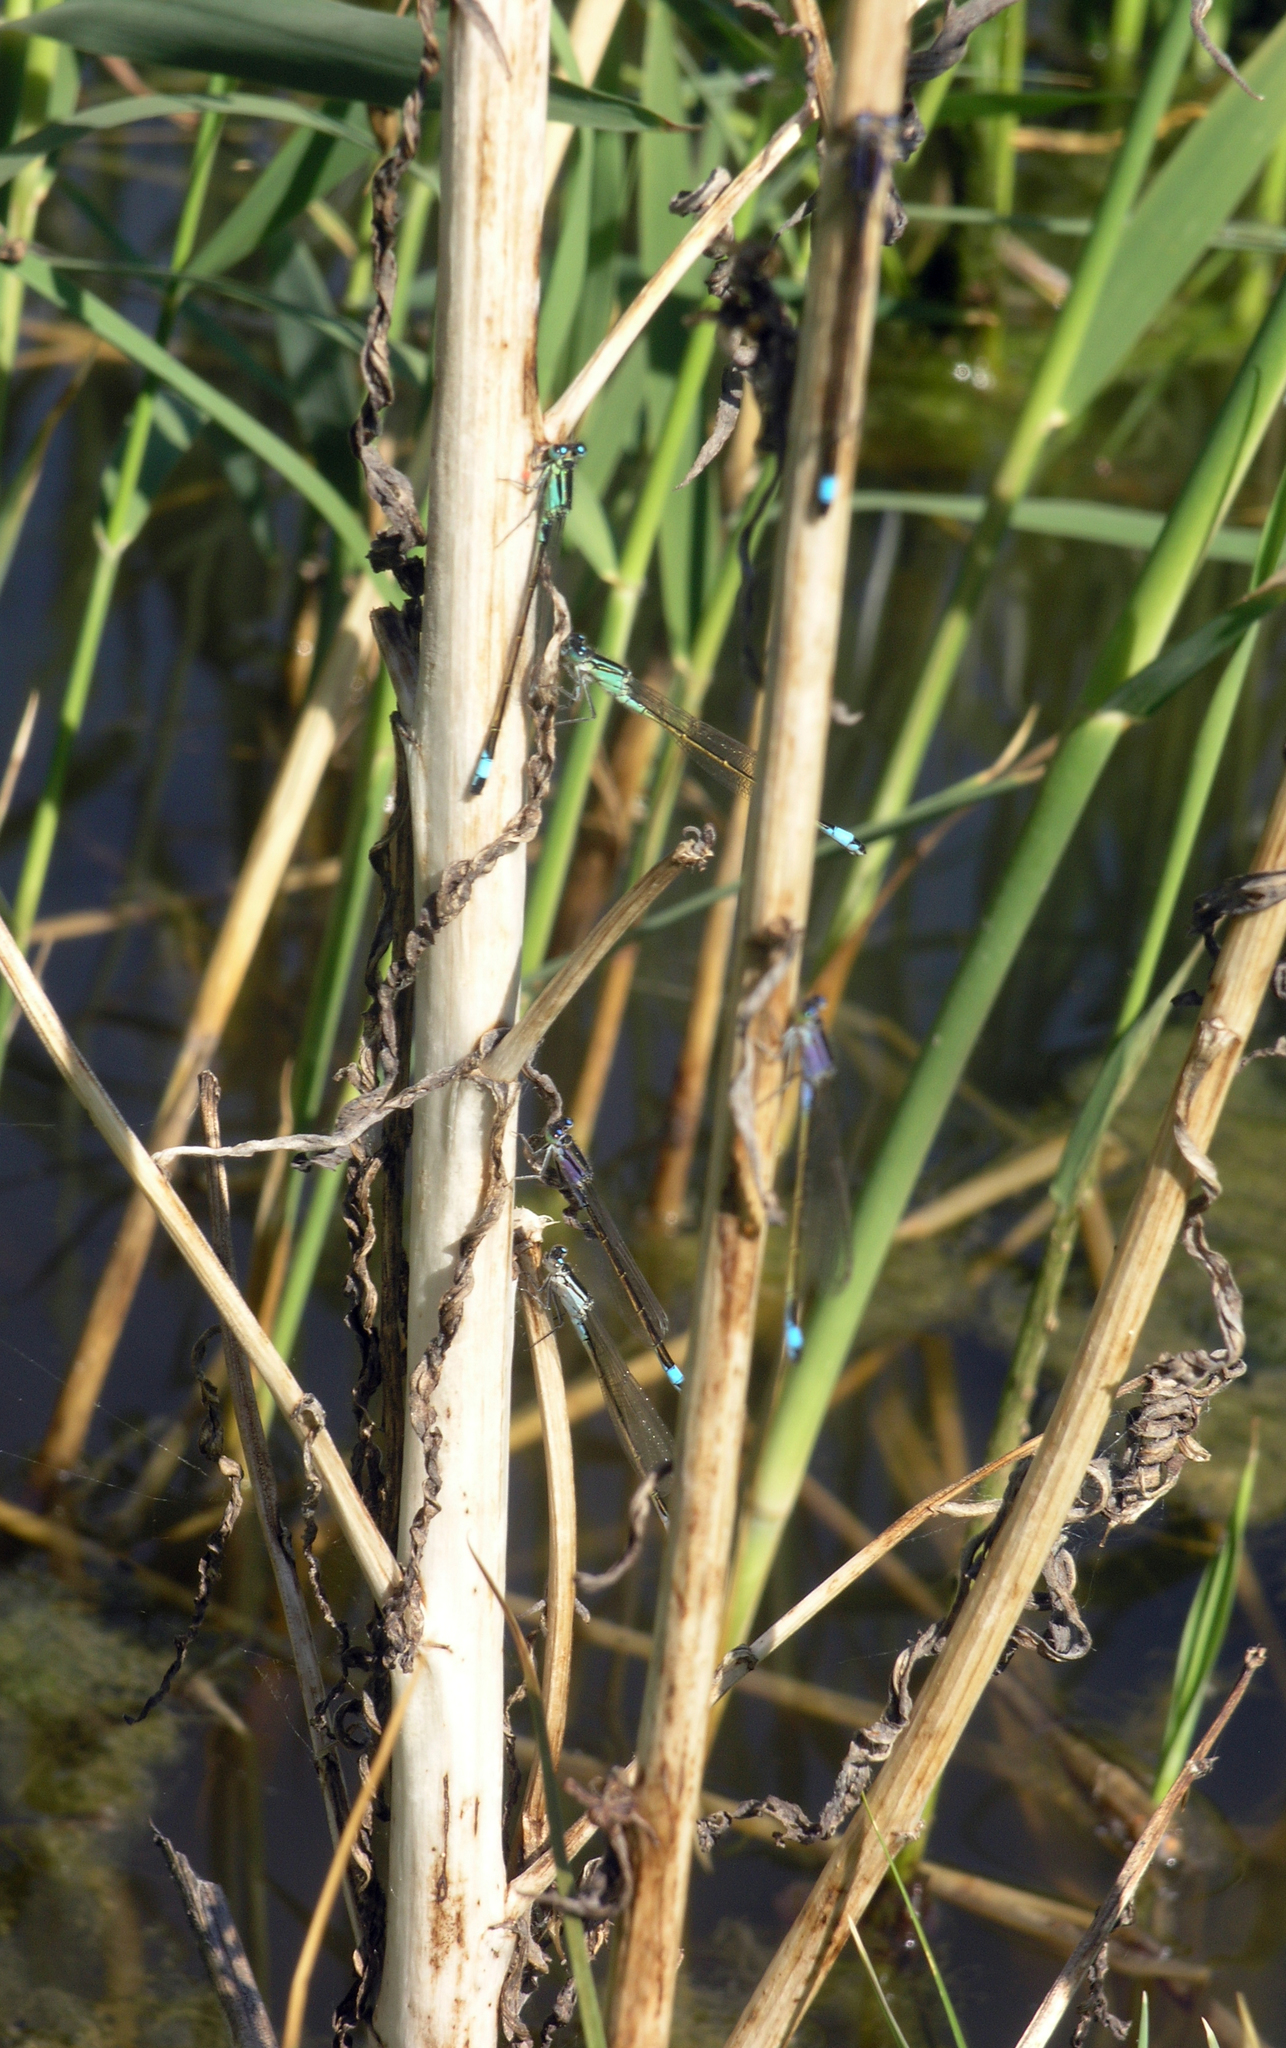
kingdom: Animalia
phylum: Arthropoda
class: Insecta
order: Odonata
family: Coenagrionidae
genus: Ischnura
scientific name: Ischnura elegans
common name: Blue-tailed damselfly
